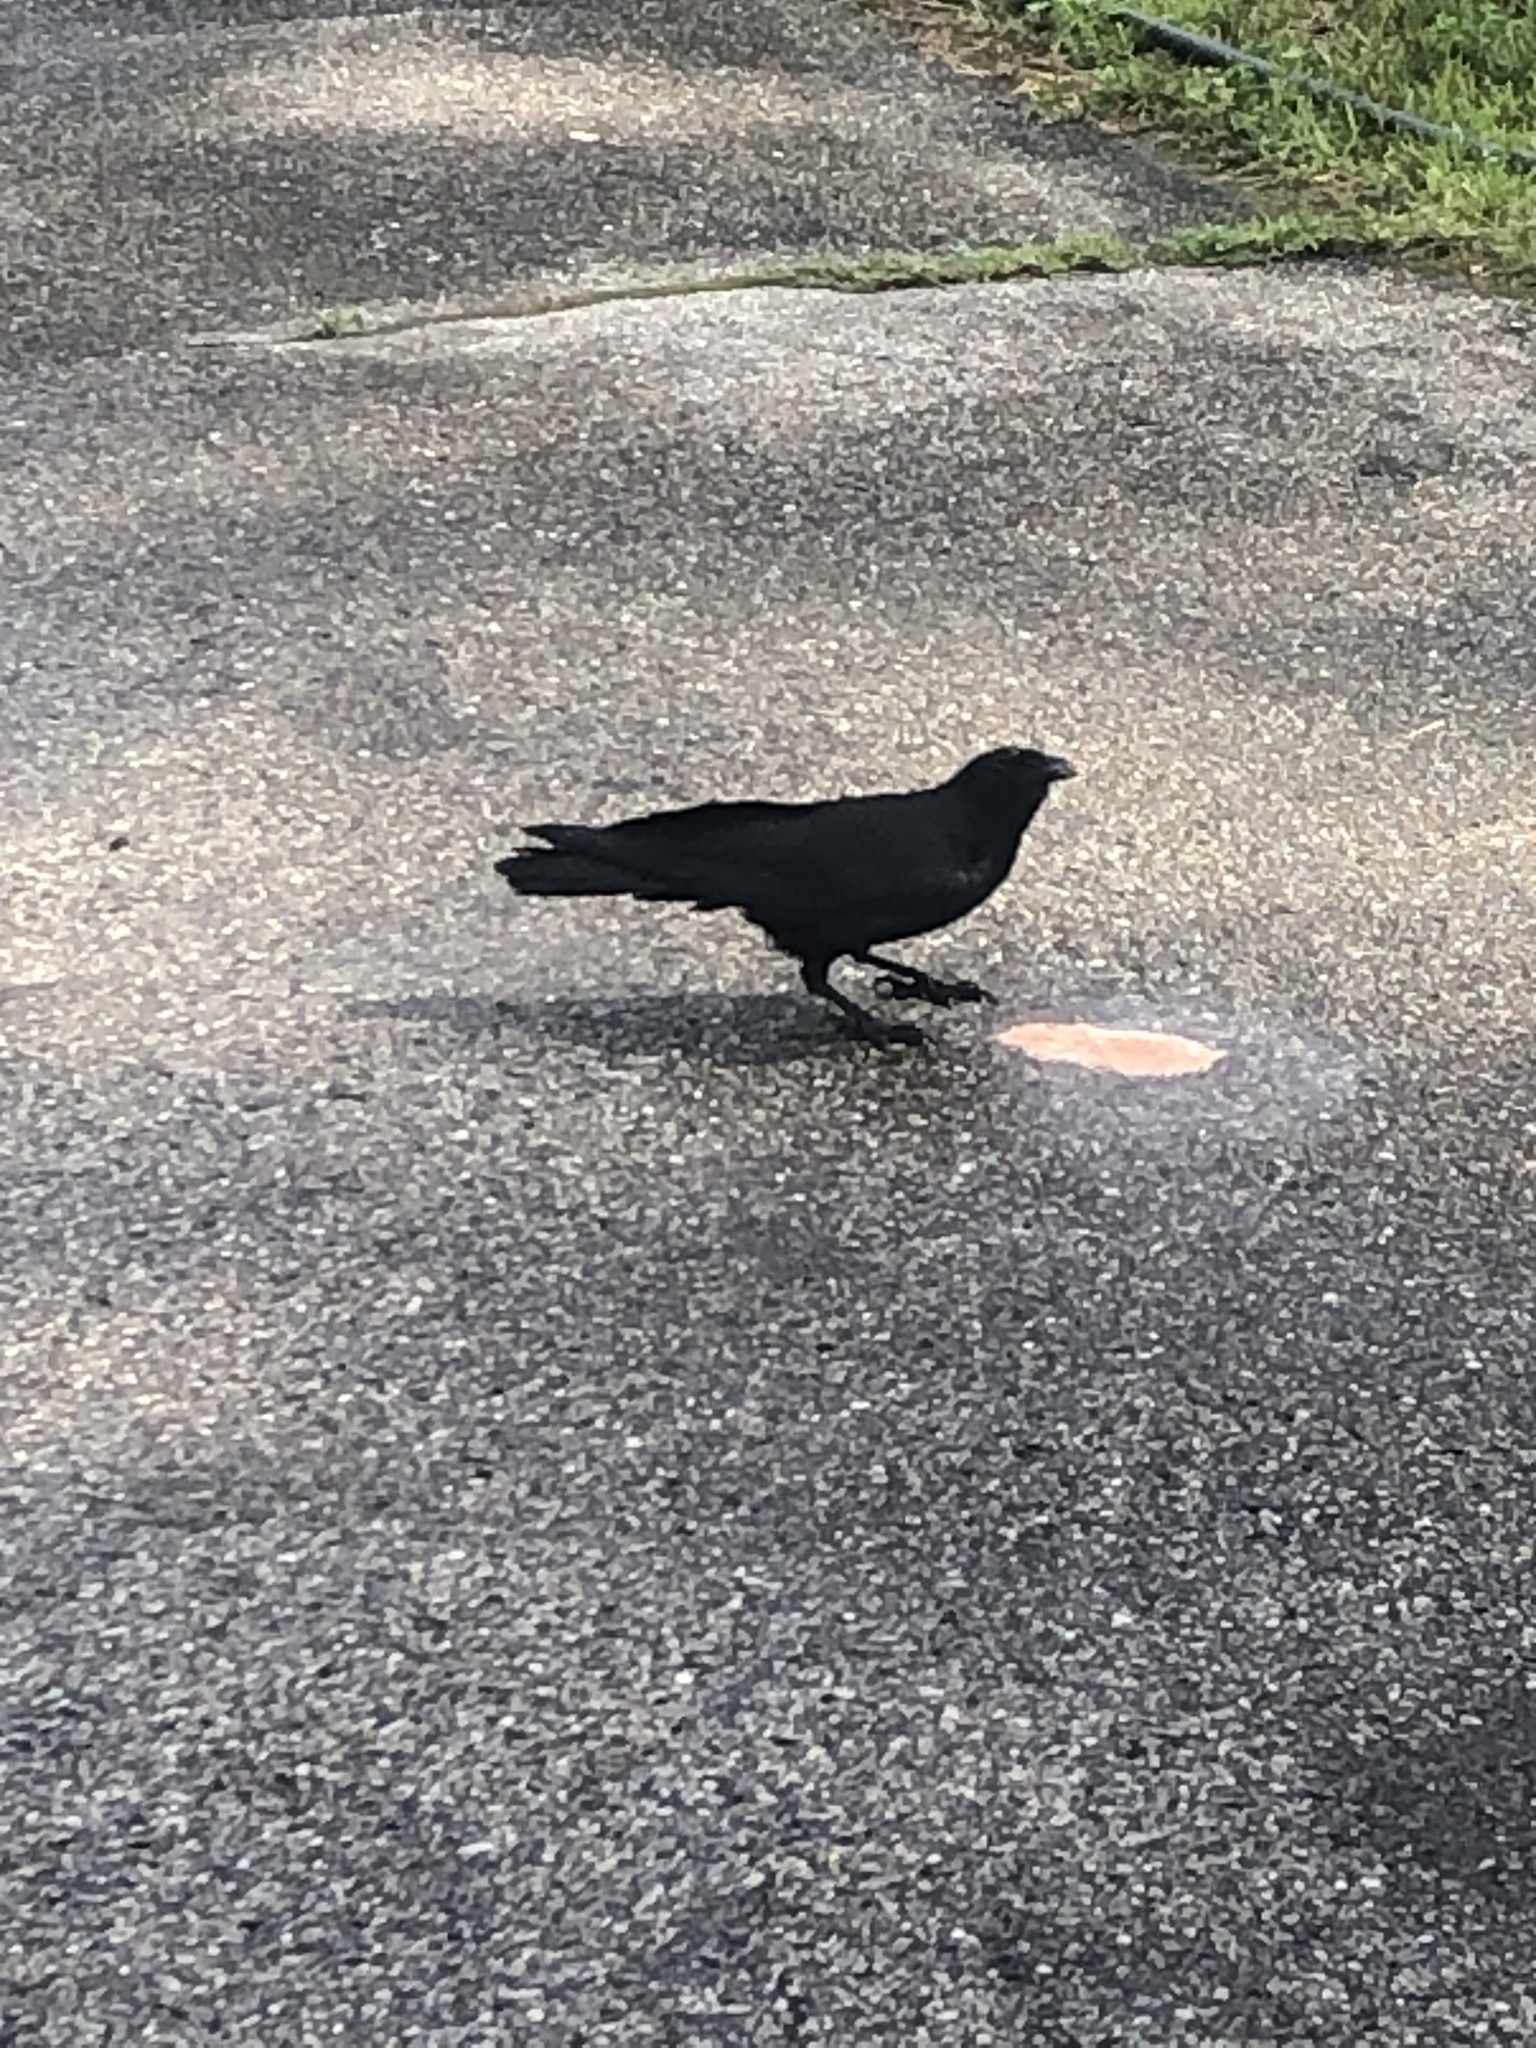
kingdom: Animalia
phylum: Chordata
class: Aves
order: Passeriformes
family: Corvidae
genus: Corvus
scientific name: Corvus brachyrhynchos
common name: American crow
